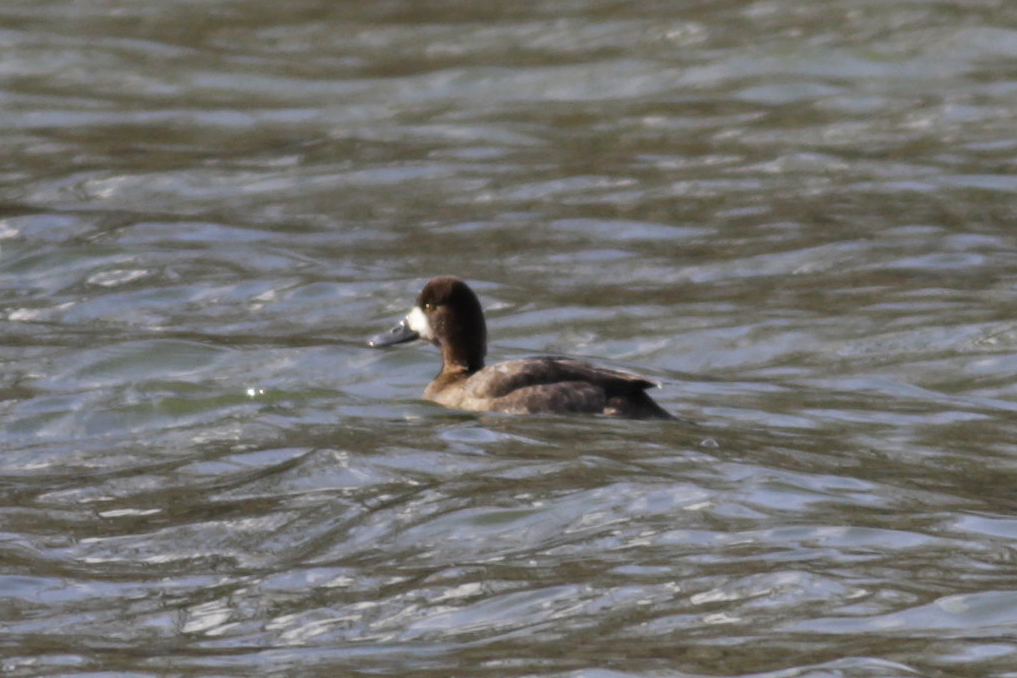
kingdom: Animalia
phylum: Chordata
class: Aves
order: Anseriformes
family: Anatidae
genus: Aythya
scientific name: Aythya affinis
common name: Lesser scaup
